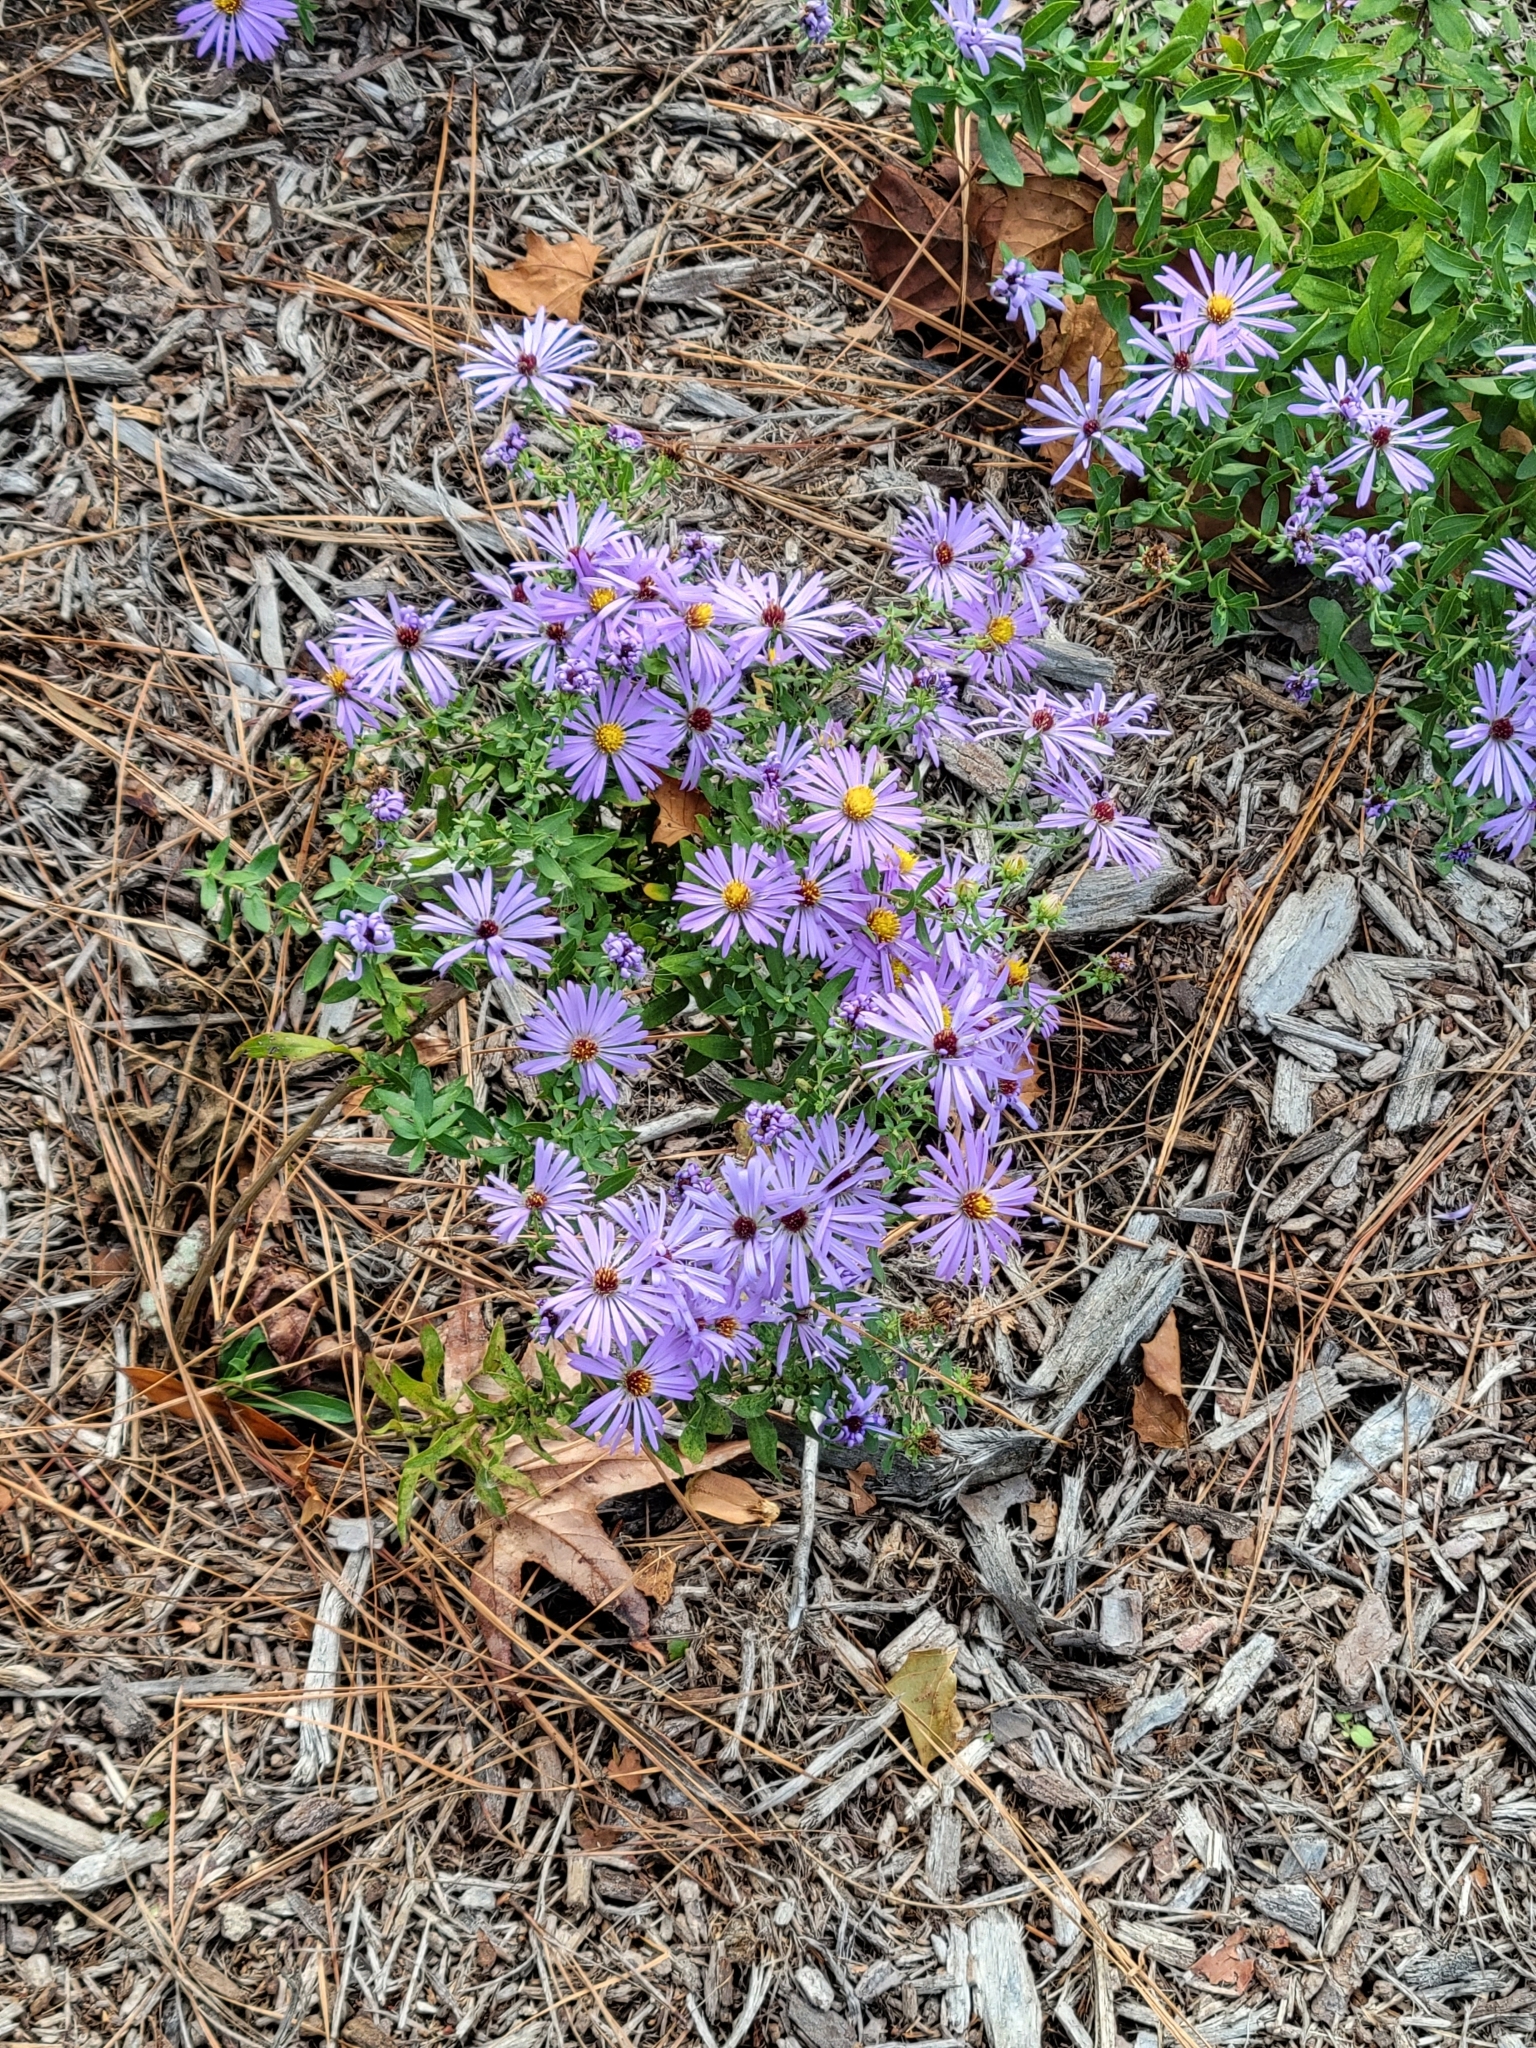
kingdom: Plantae
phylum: Tracheophyta
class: Magnoliopsida
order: Asterales
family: Asteraceae
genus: Symphyotrichum
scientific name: Symphyotrichum novae-angliae
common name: Michaelmas daisy
